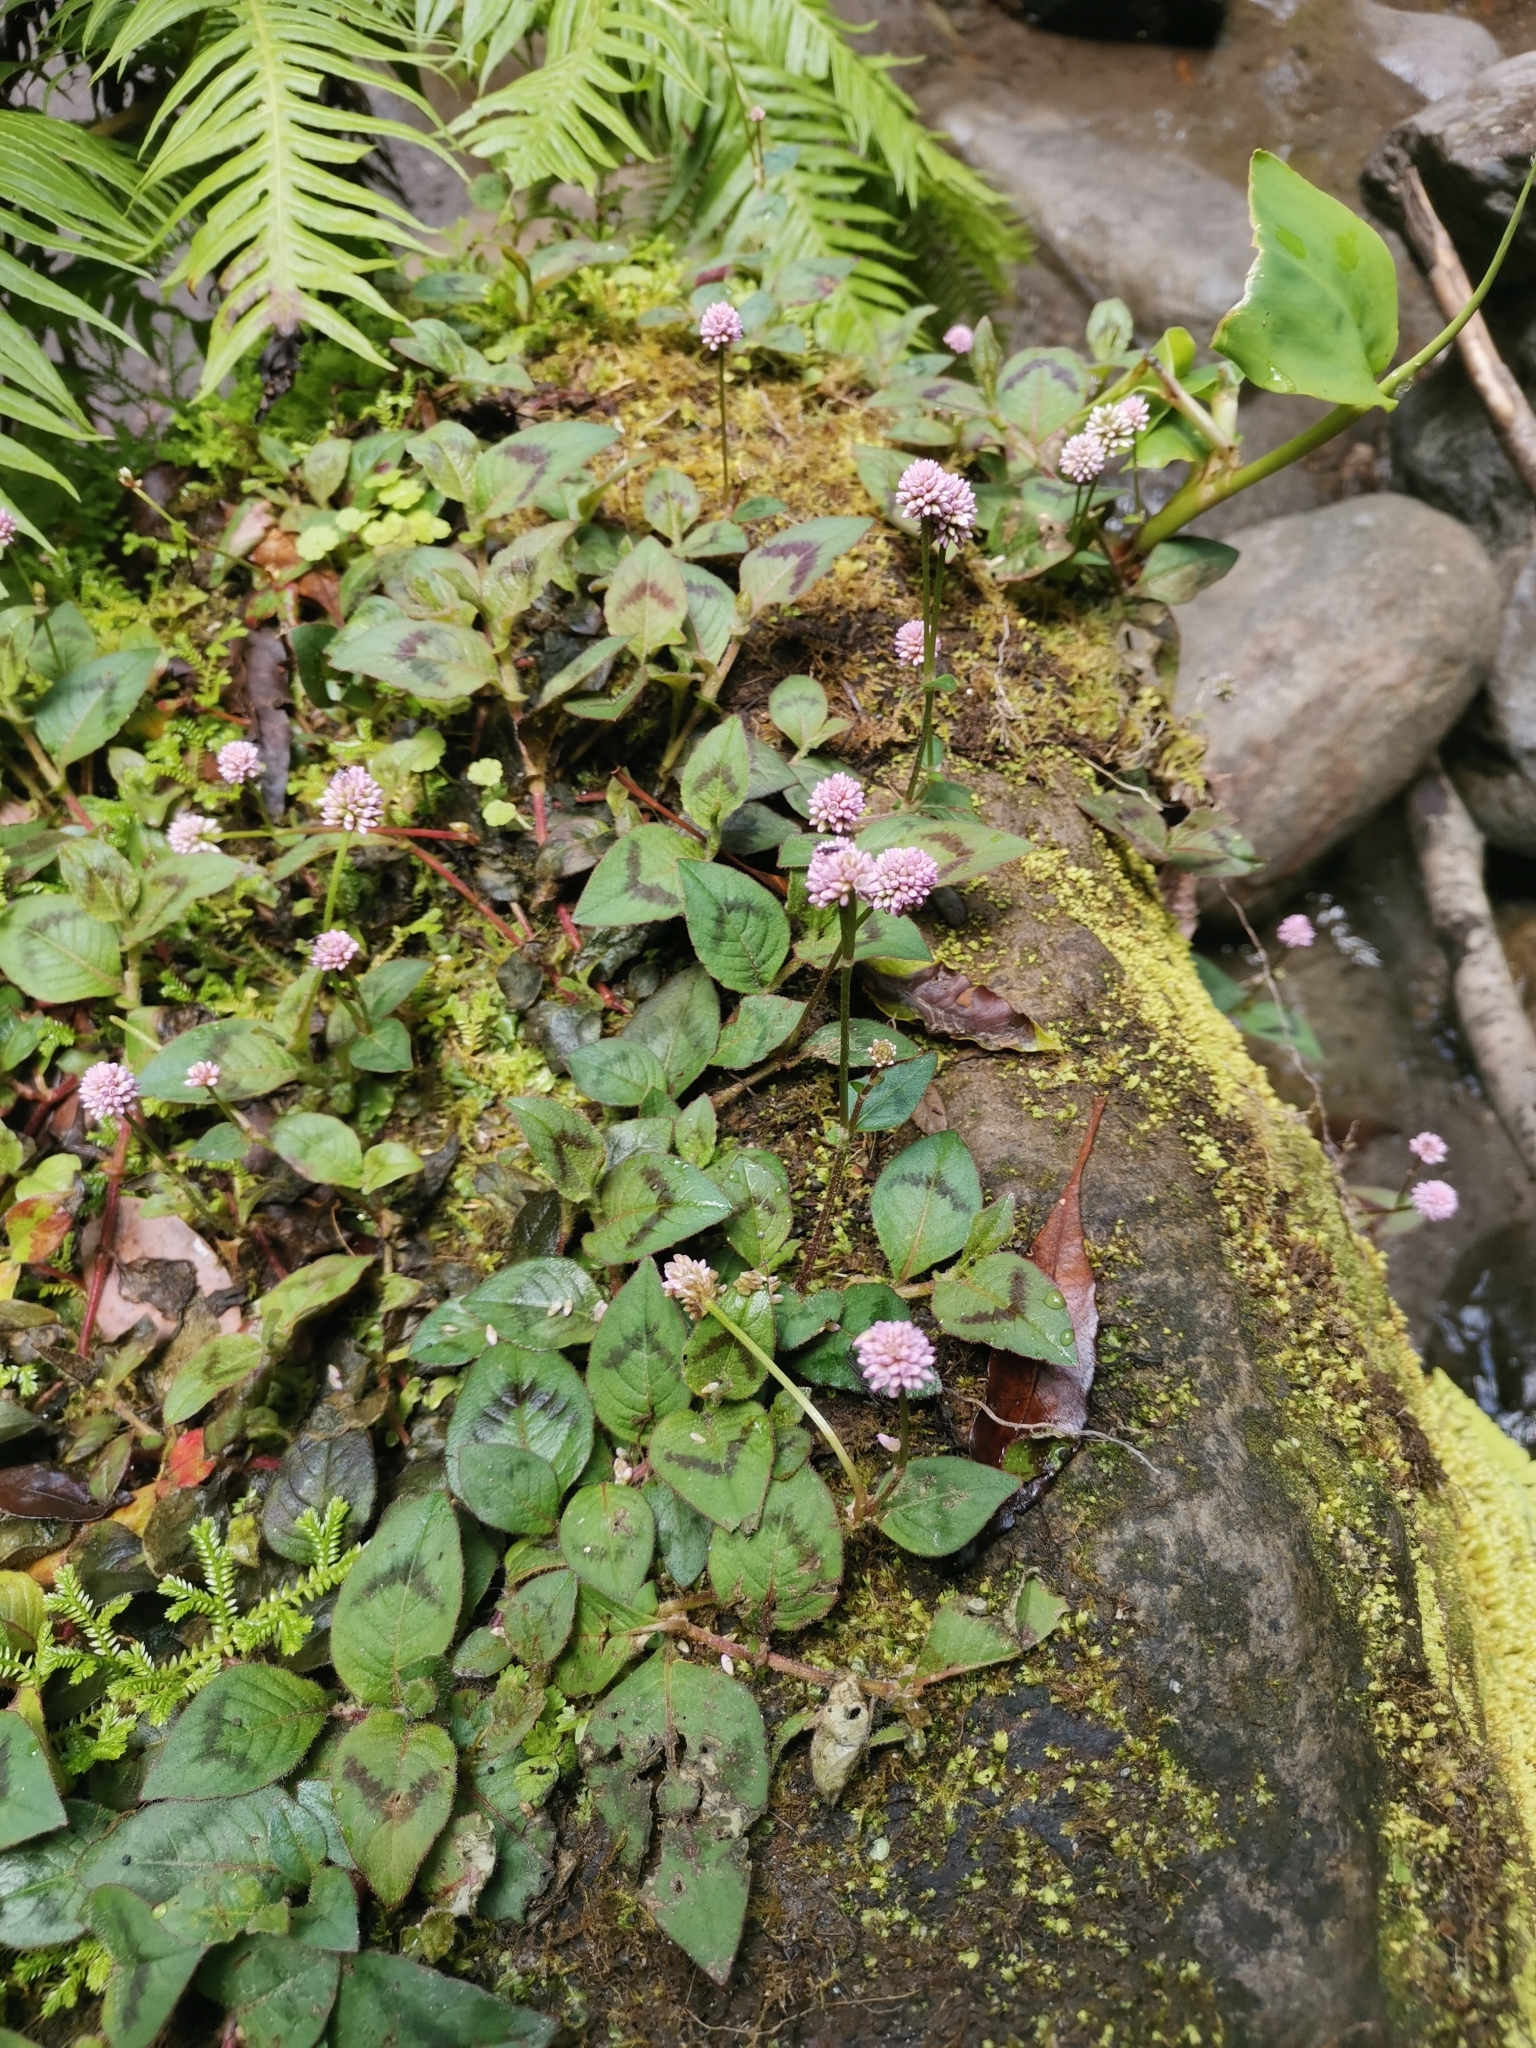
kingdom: Plantae
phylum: Tracheophyta
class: Magnoliopsida
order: Caryophyllales
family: Polygonaceae
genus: Persicaria
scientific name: Persicaria capitata
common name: Pinkhead smartweed
